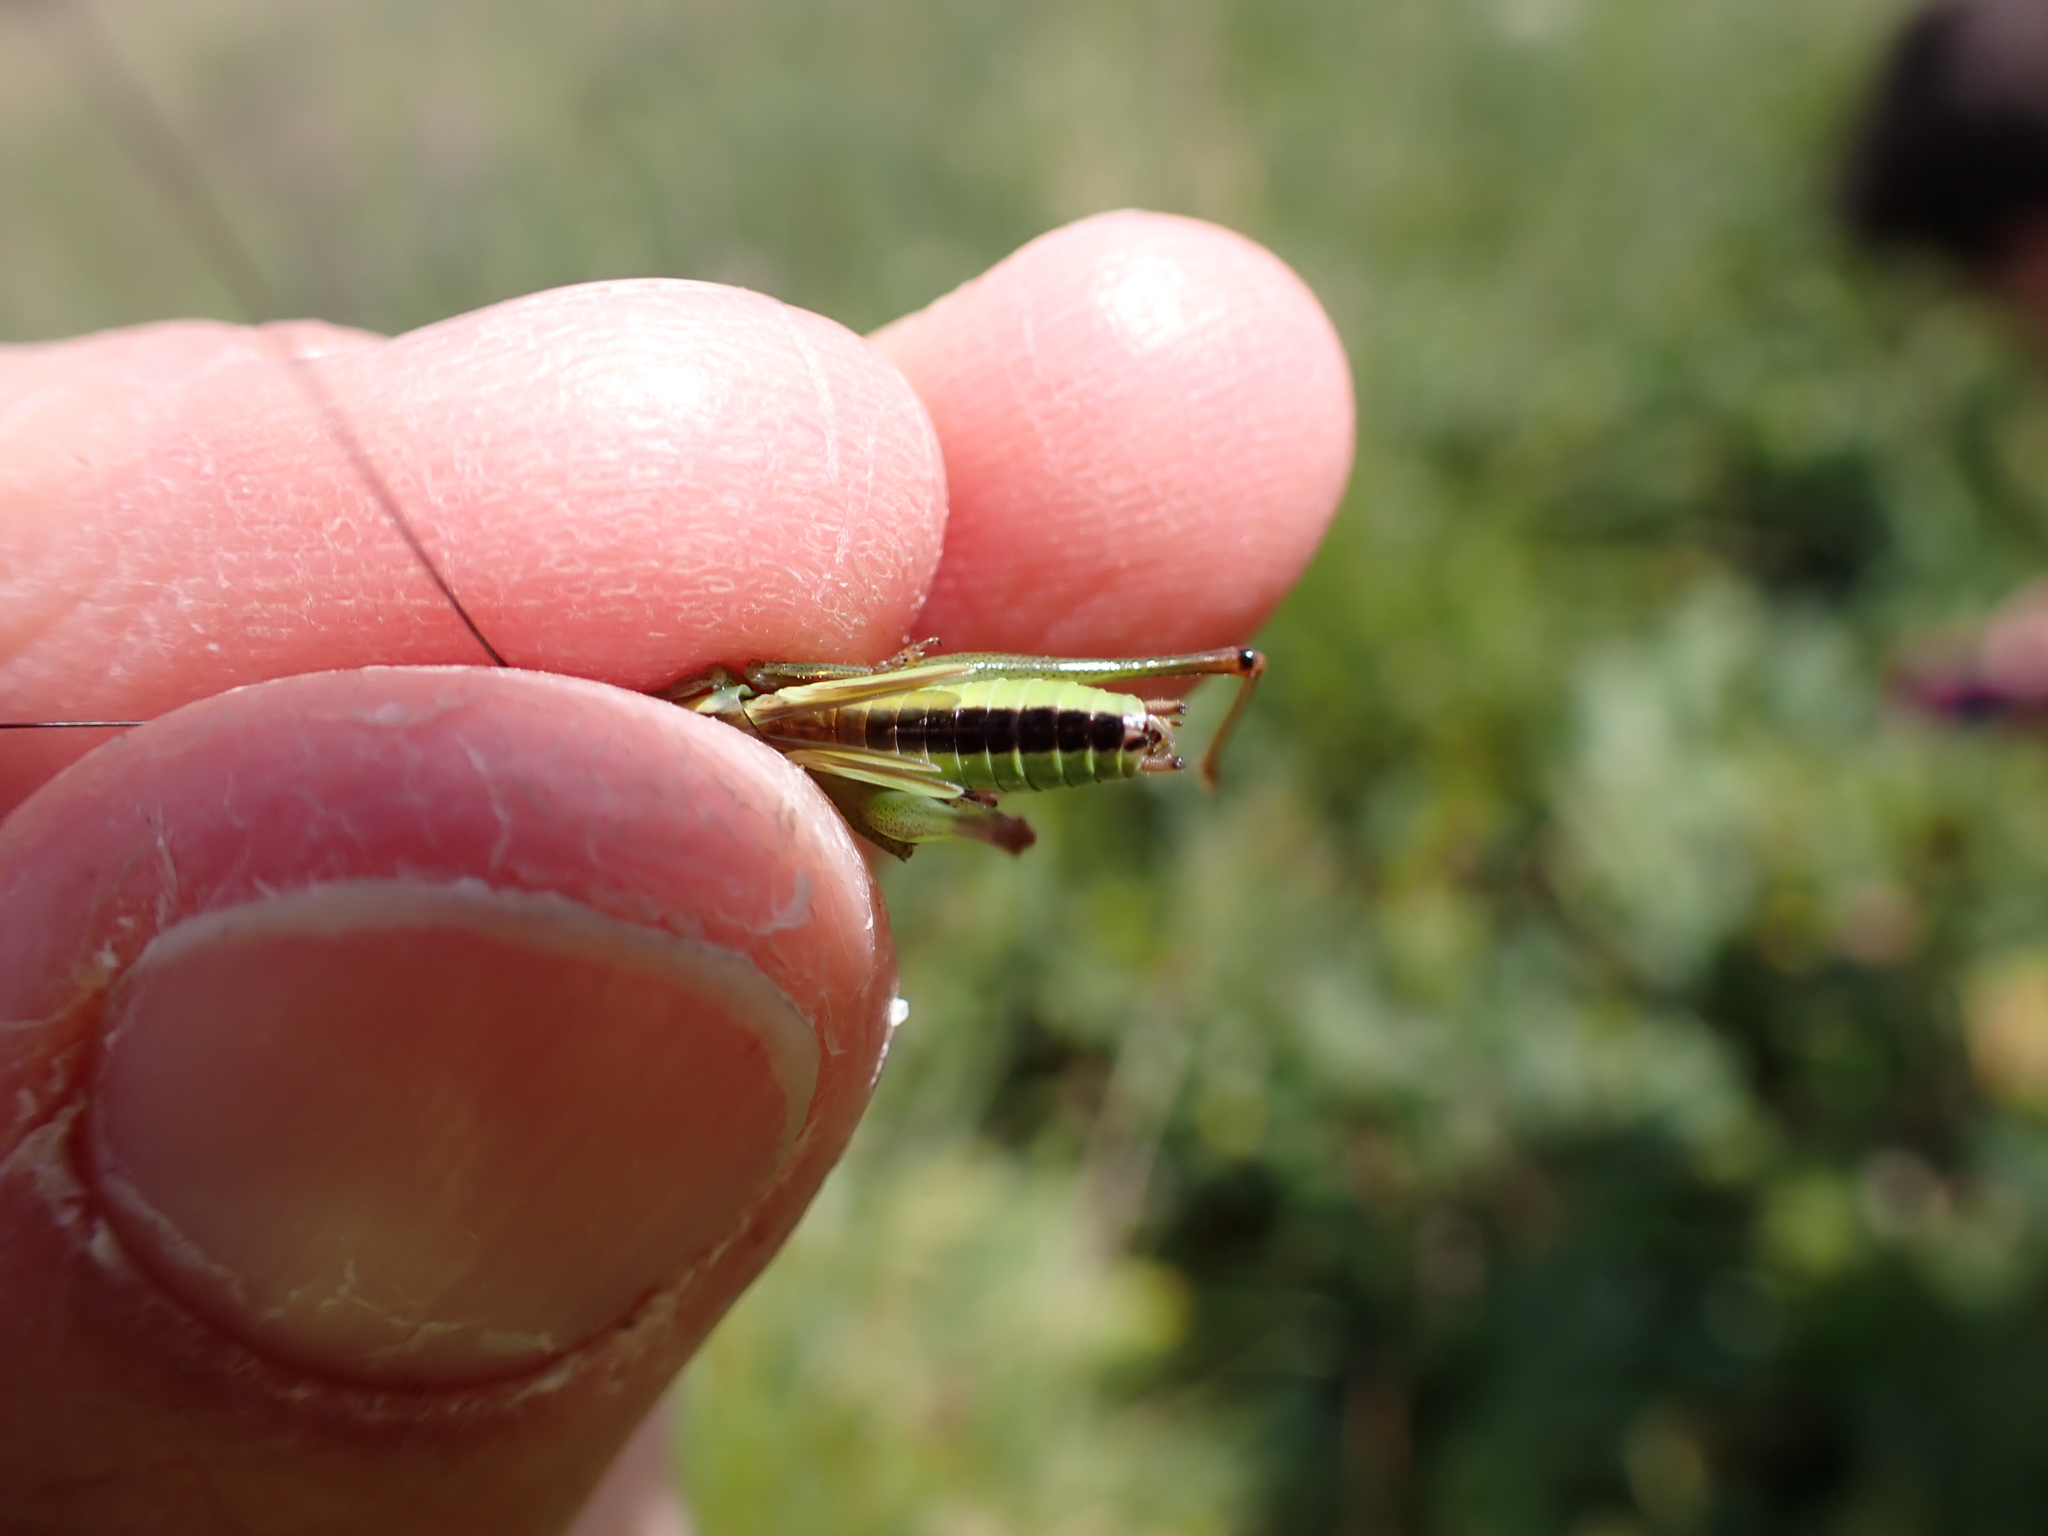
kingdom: Animalia
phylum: Arthropoda
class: Insecta
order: Orthoptera
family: Tettigoniidae
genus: Conocephalus
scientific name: Conocephalus fuscus
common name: Long-winged conehead
